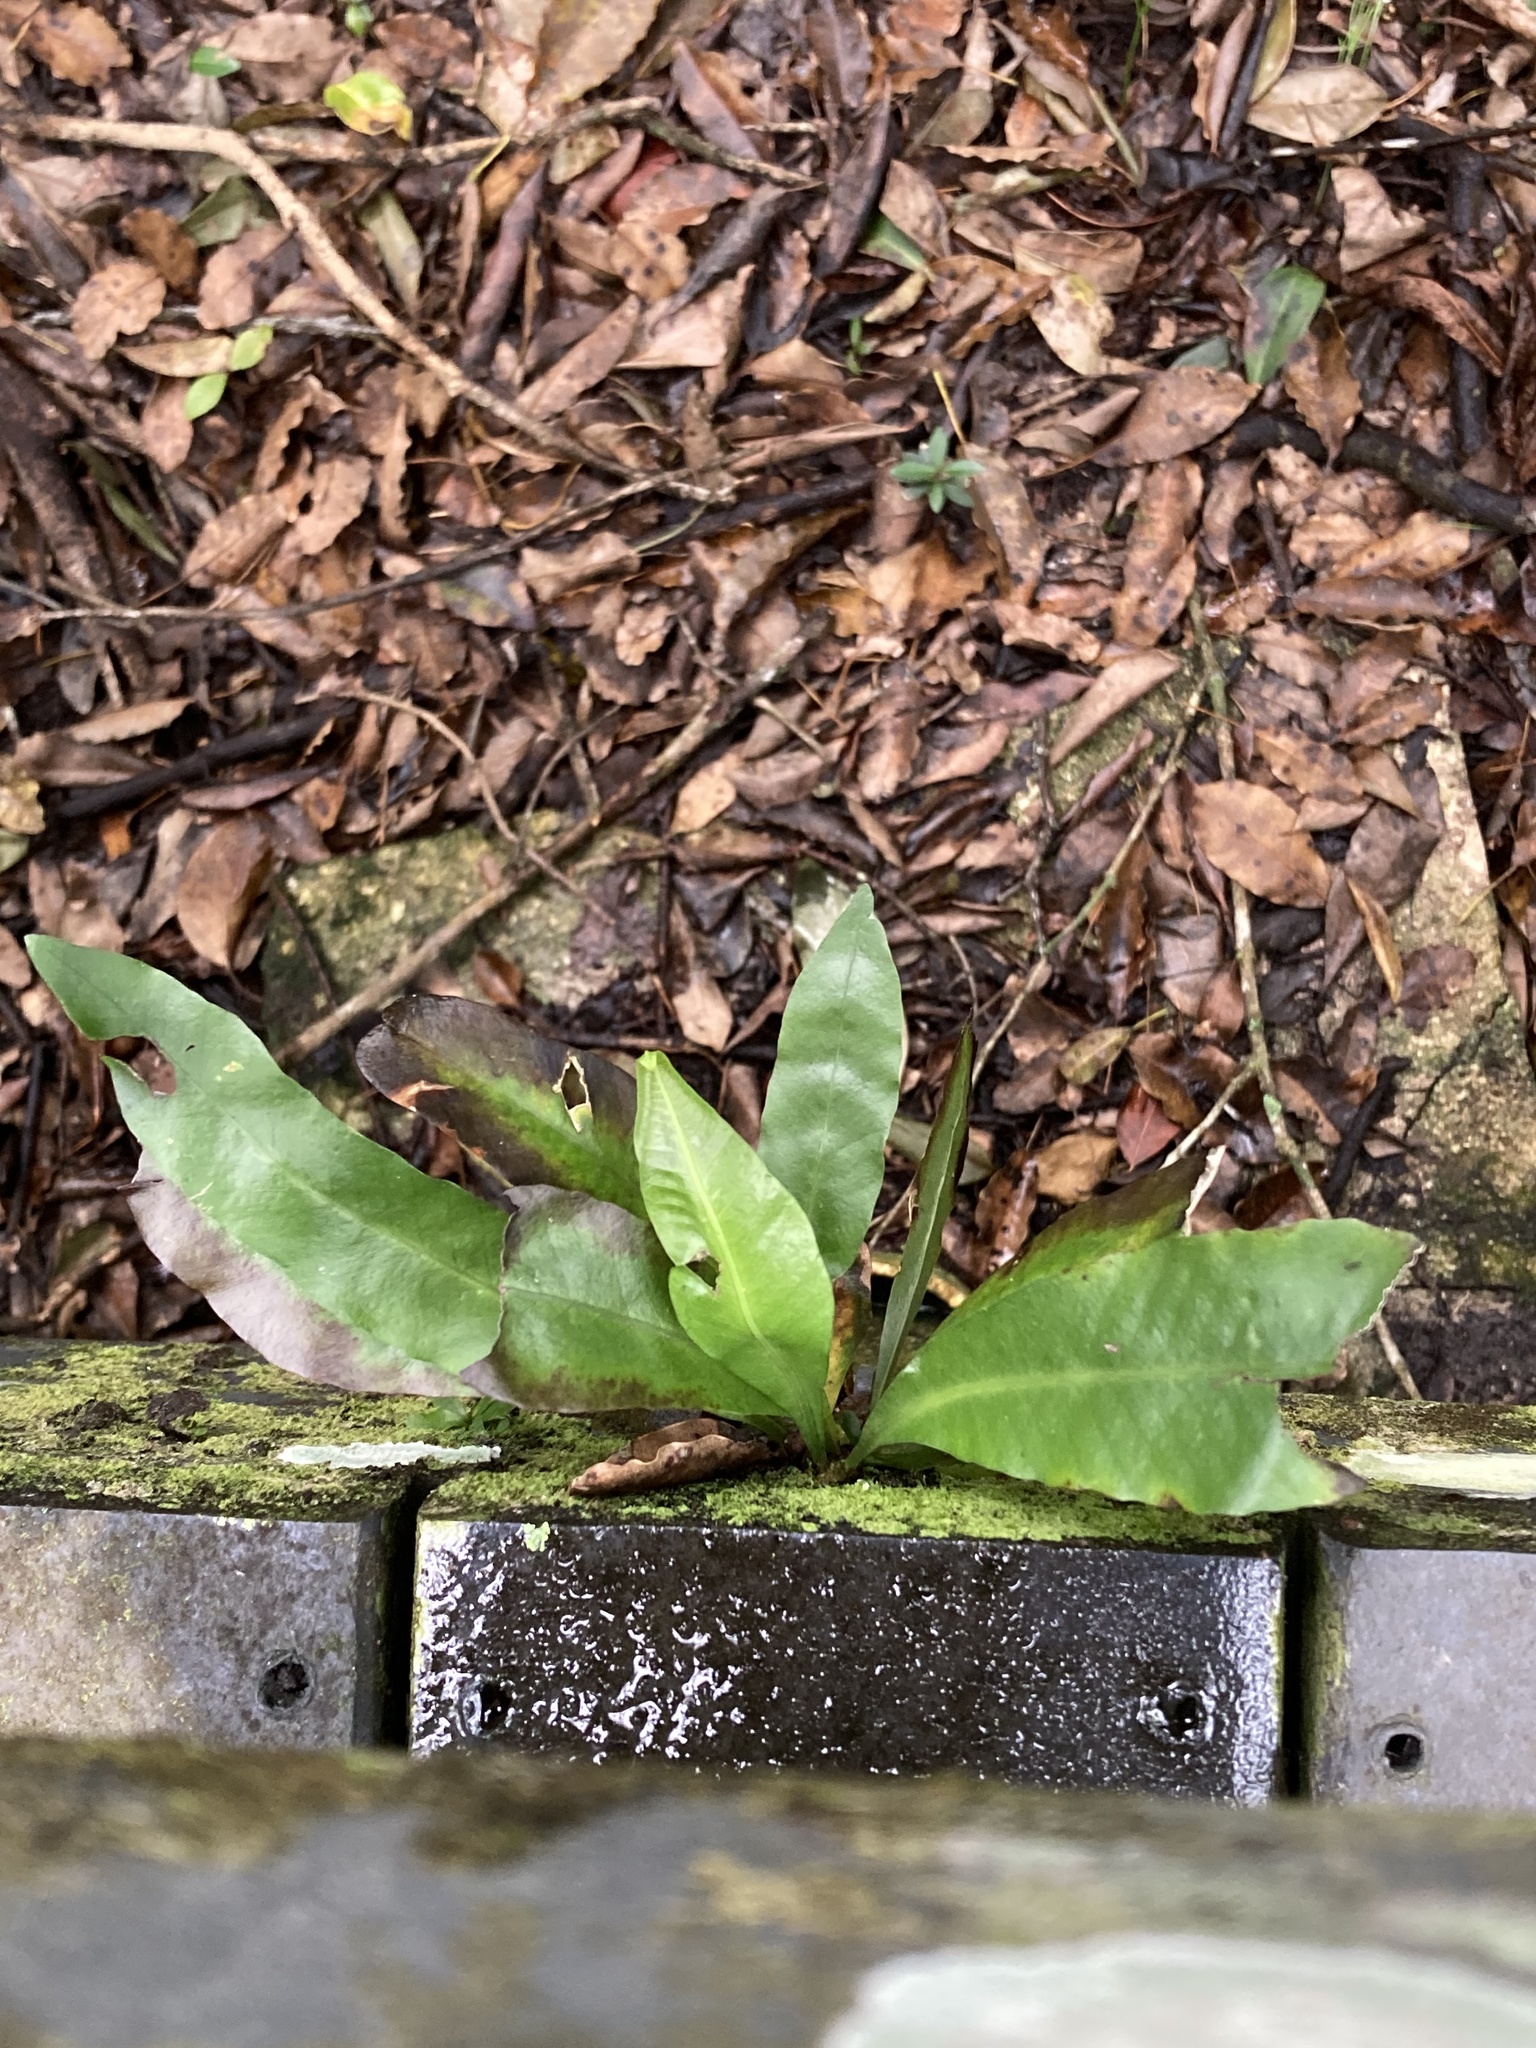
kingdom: Plantae
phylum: Tracheophyta
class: Polypodiopsida
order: Polypodiales
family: Polypodiaceae
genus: Campyloneurum
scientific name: Campyloneurum phyllitidis
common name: Cow-tongue fern
